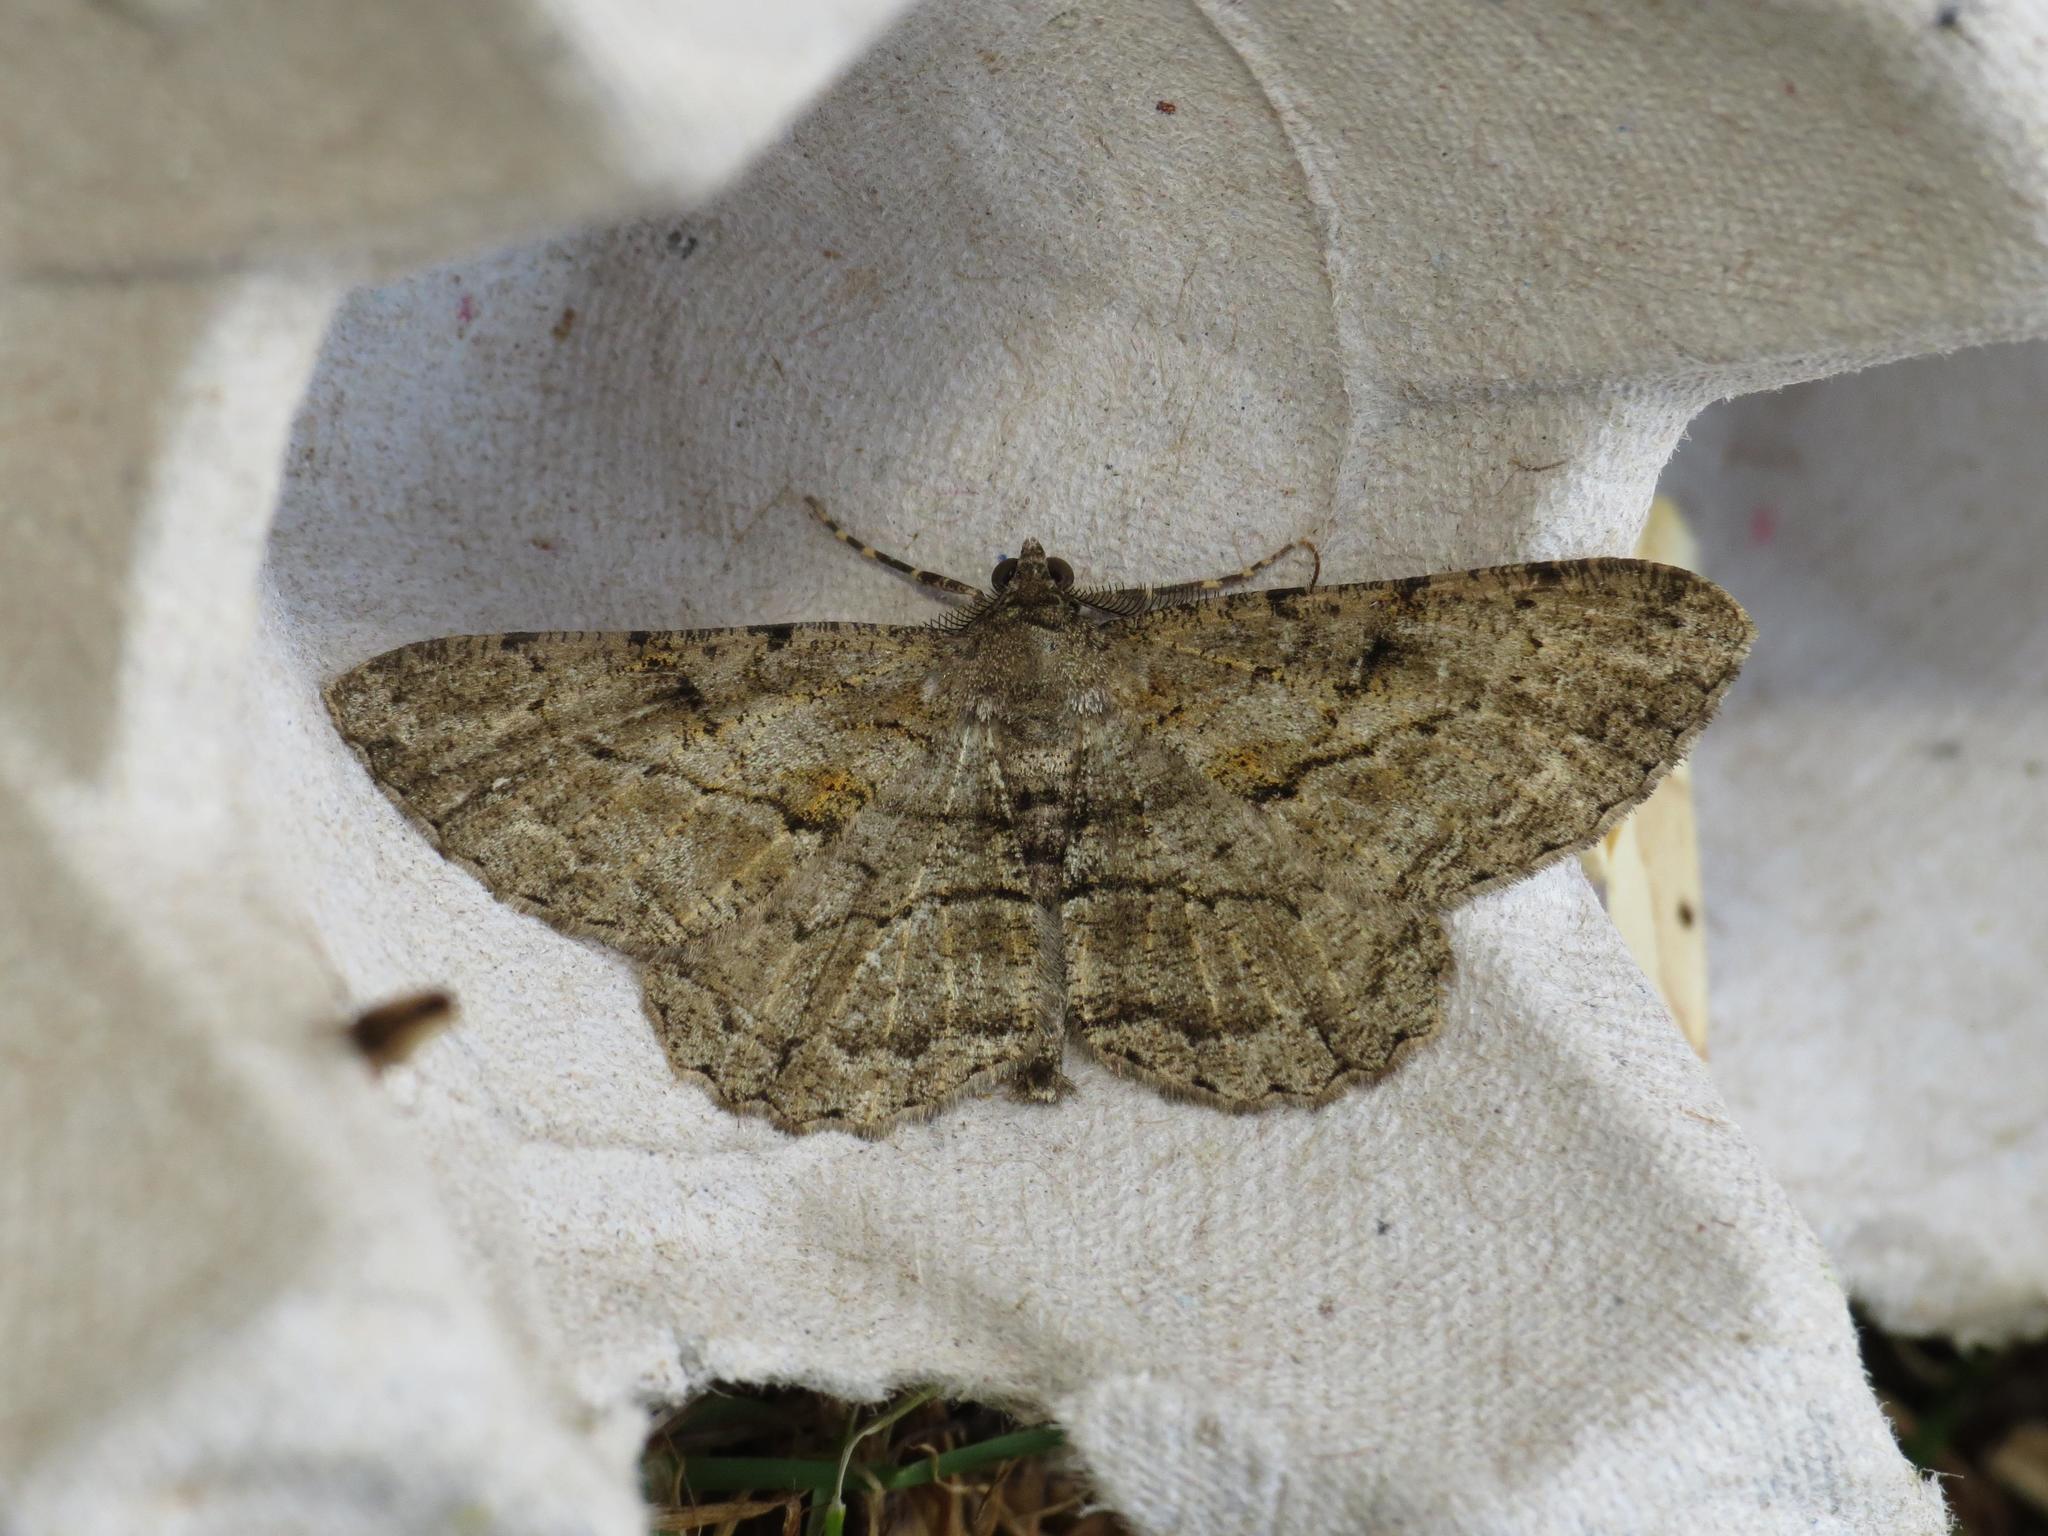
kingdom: Animalia
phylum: Arthropoda
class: Insecta
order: Lepidoptera
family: Geometridae
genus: Peribatodes
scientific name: Peribatodes rhomboidaria
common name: Willow beauty
